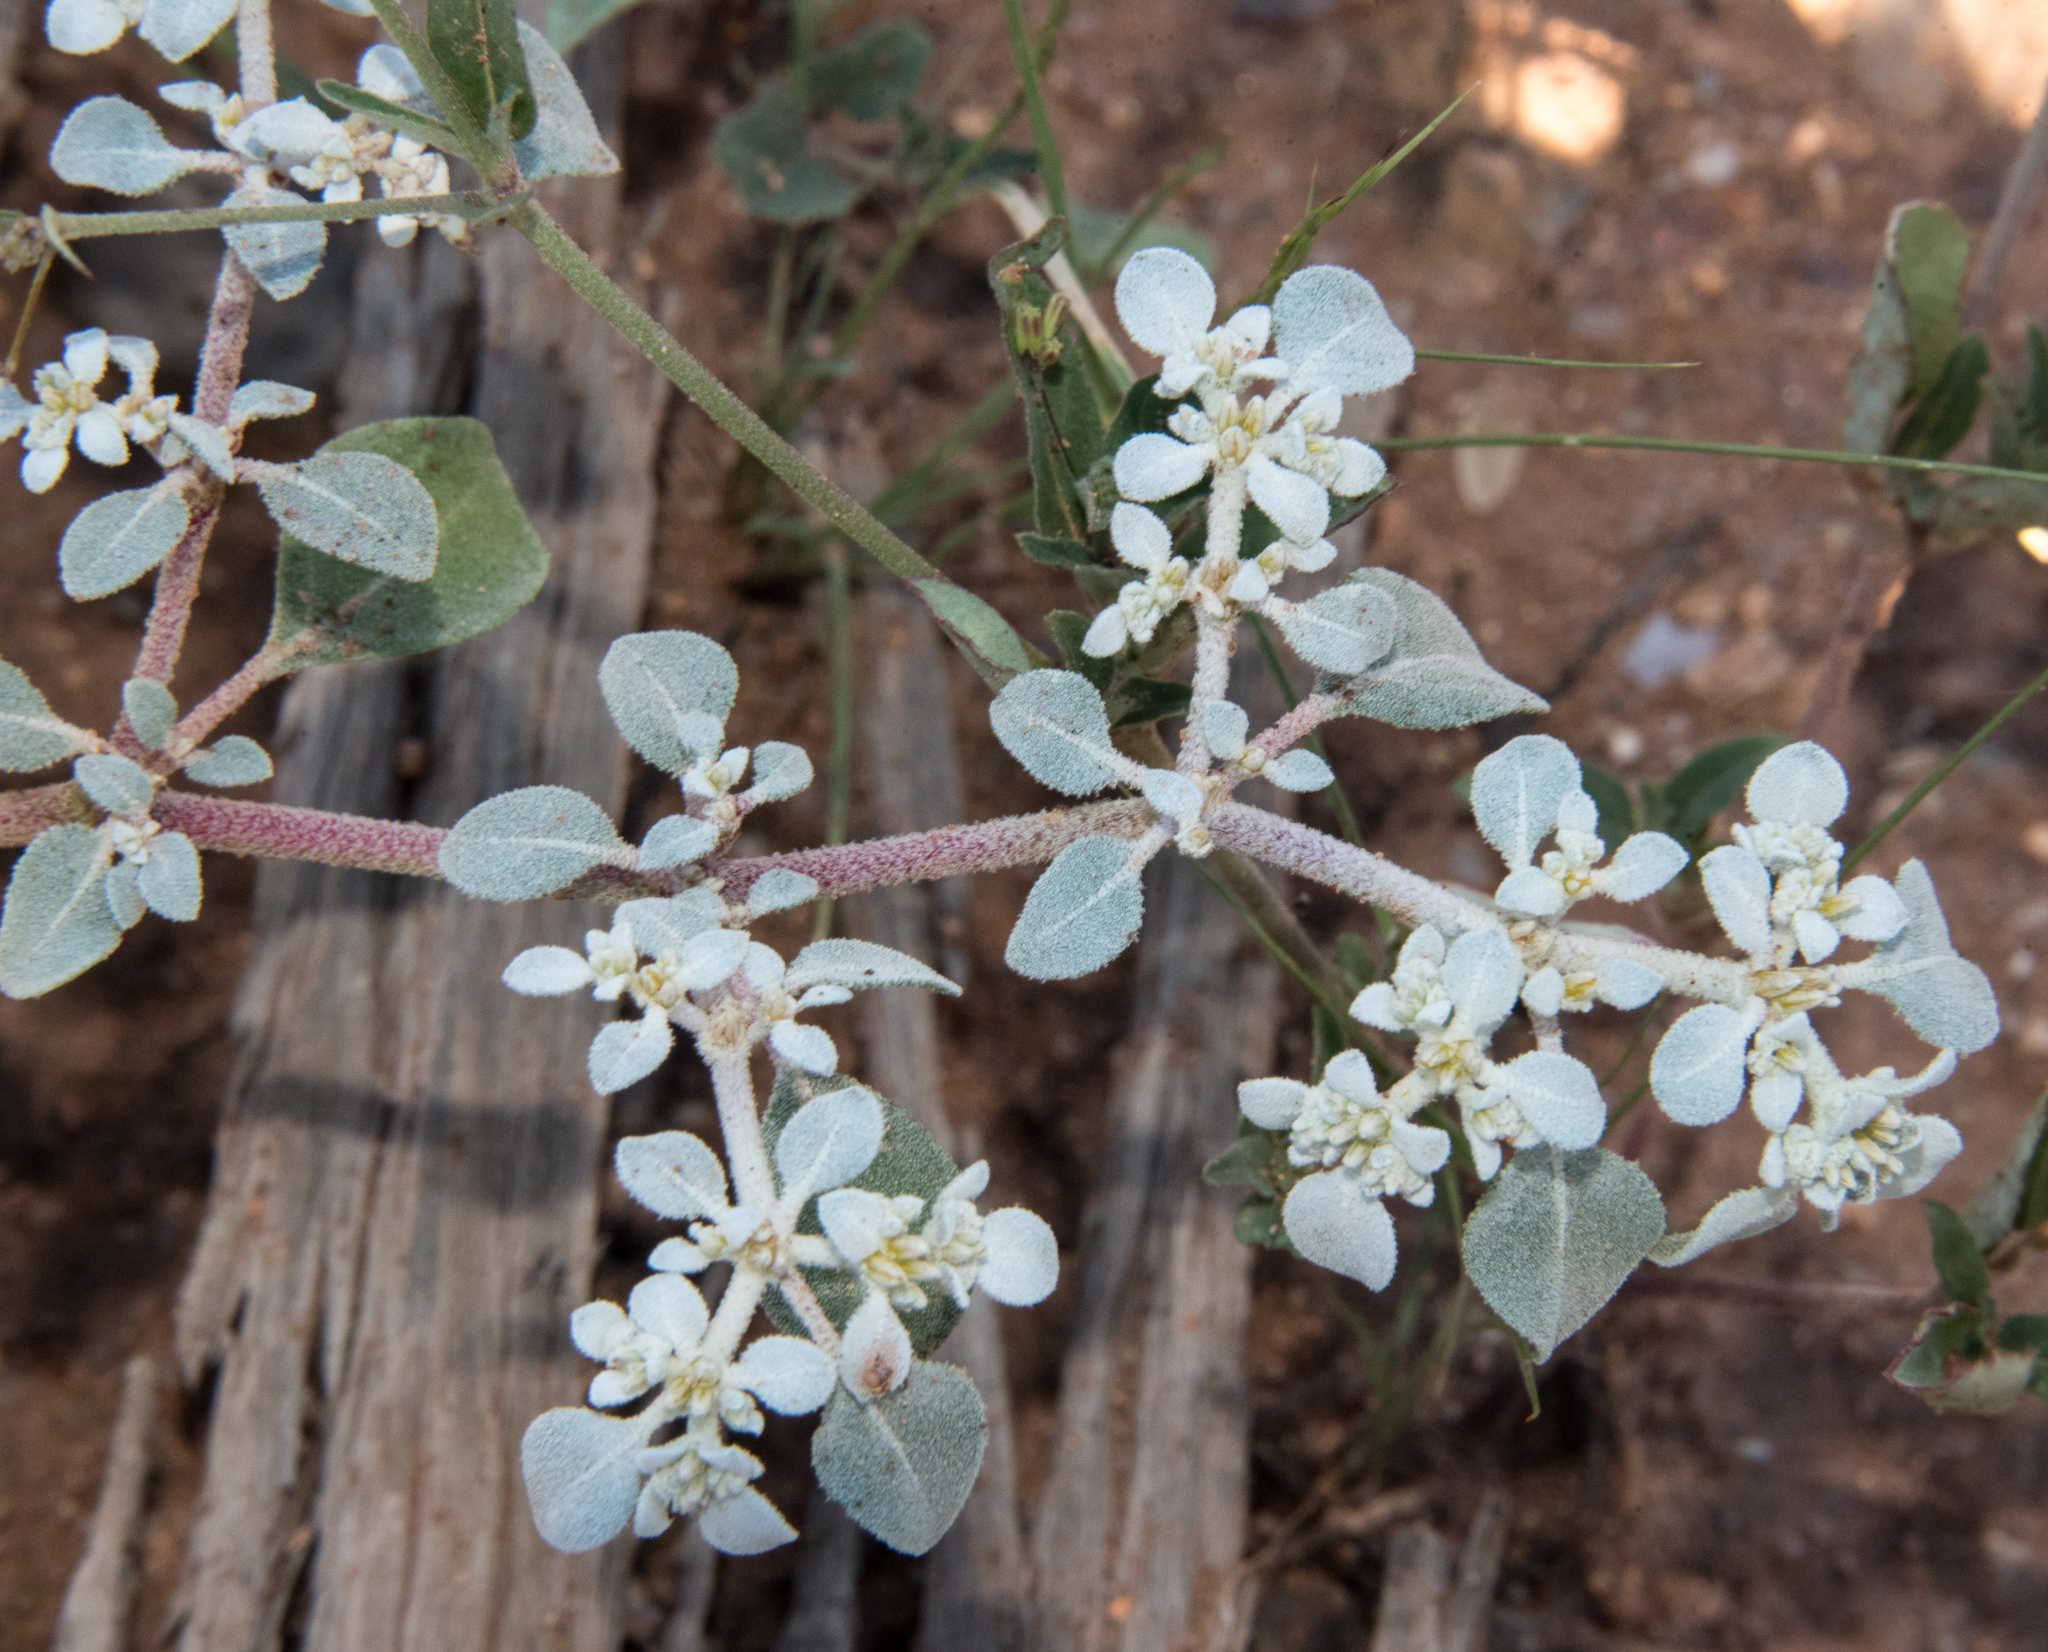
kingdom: Plantae
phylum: Tracheophyta
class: Magnoliopsida
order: Caryophyllales
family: Amaranthaceae
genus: Tidestromia
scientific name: Tidestromia lanuginosa
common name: Woolly tidestromia
